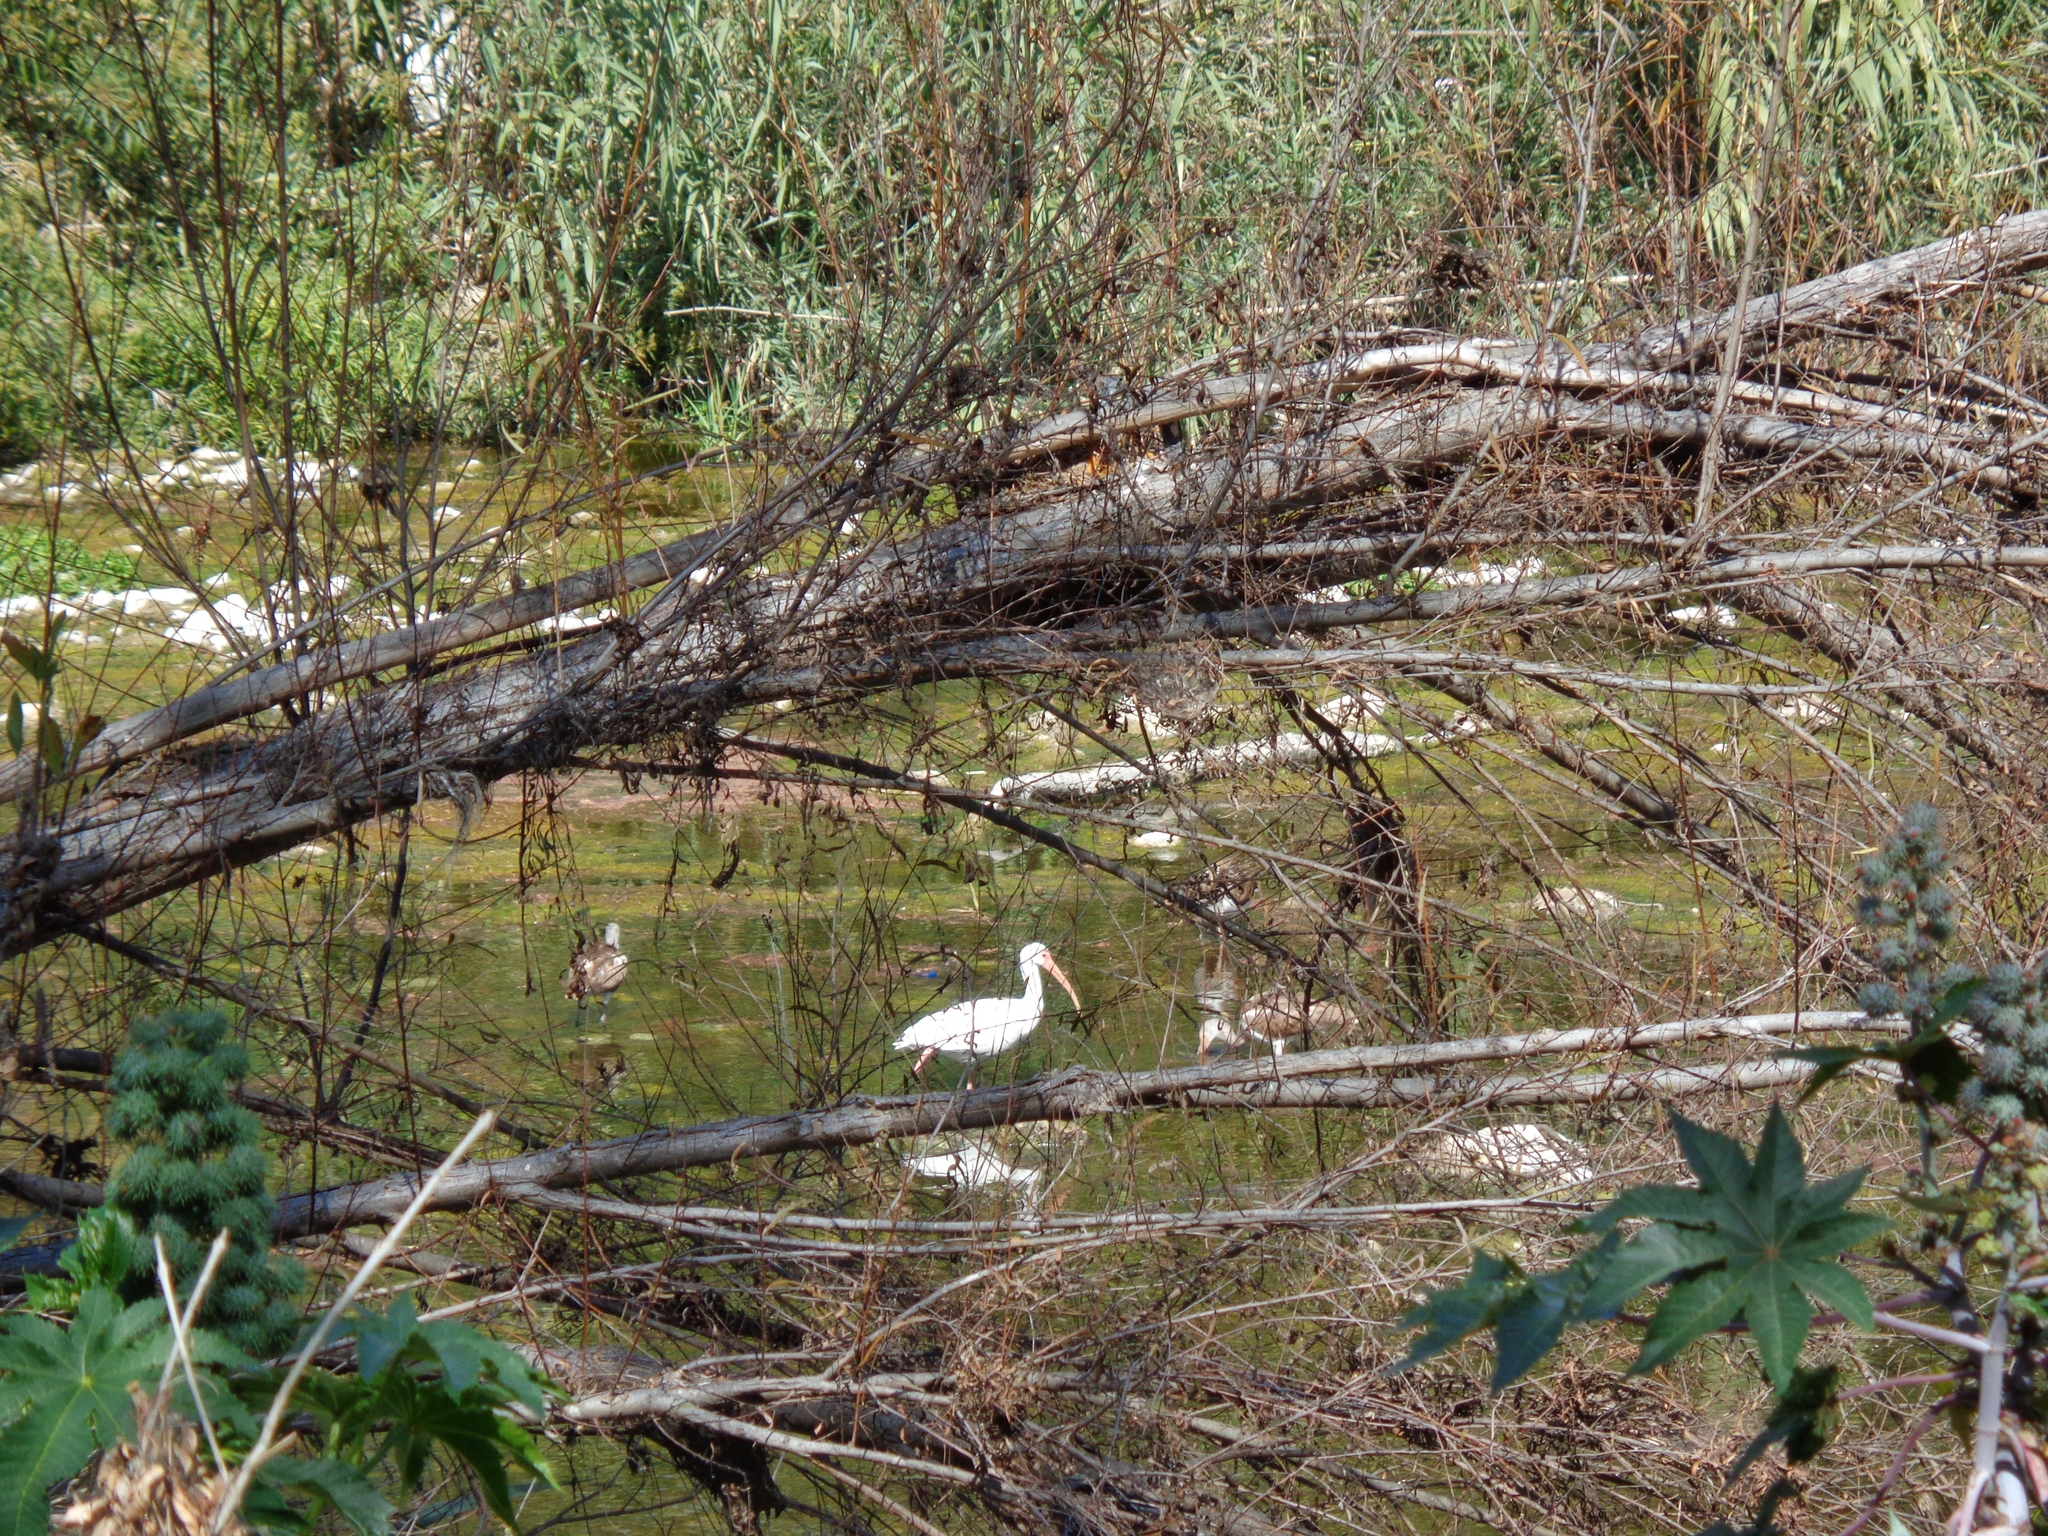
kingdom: Animalia
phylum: Chordata
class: Aves
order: Pelecaniformes
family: Threskiornithidae
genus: Eudocimus
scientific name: Eudocimus albus
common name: White ibis
